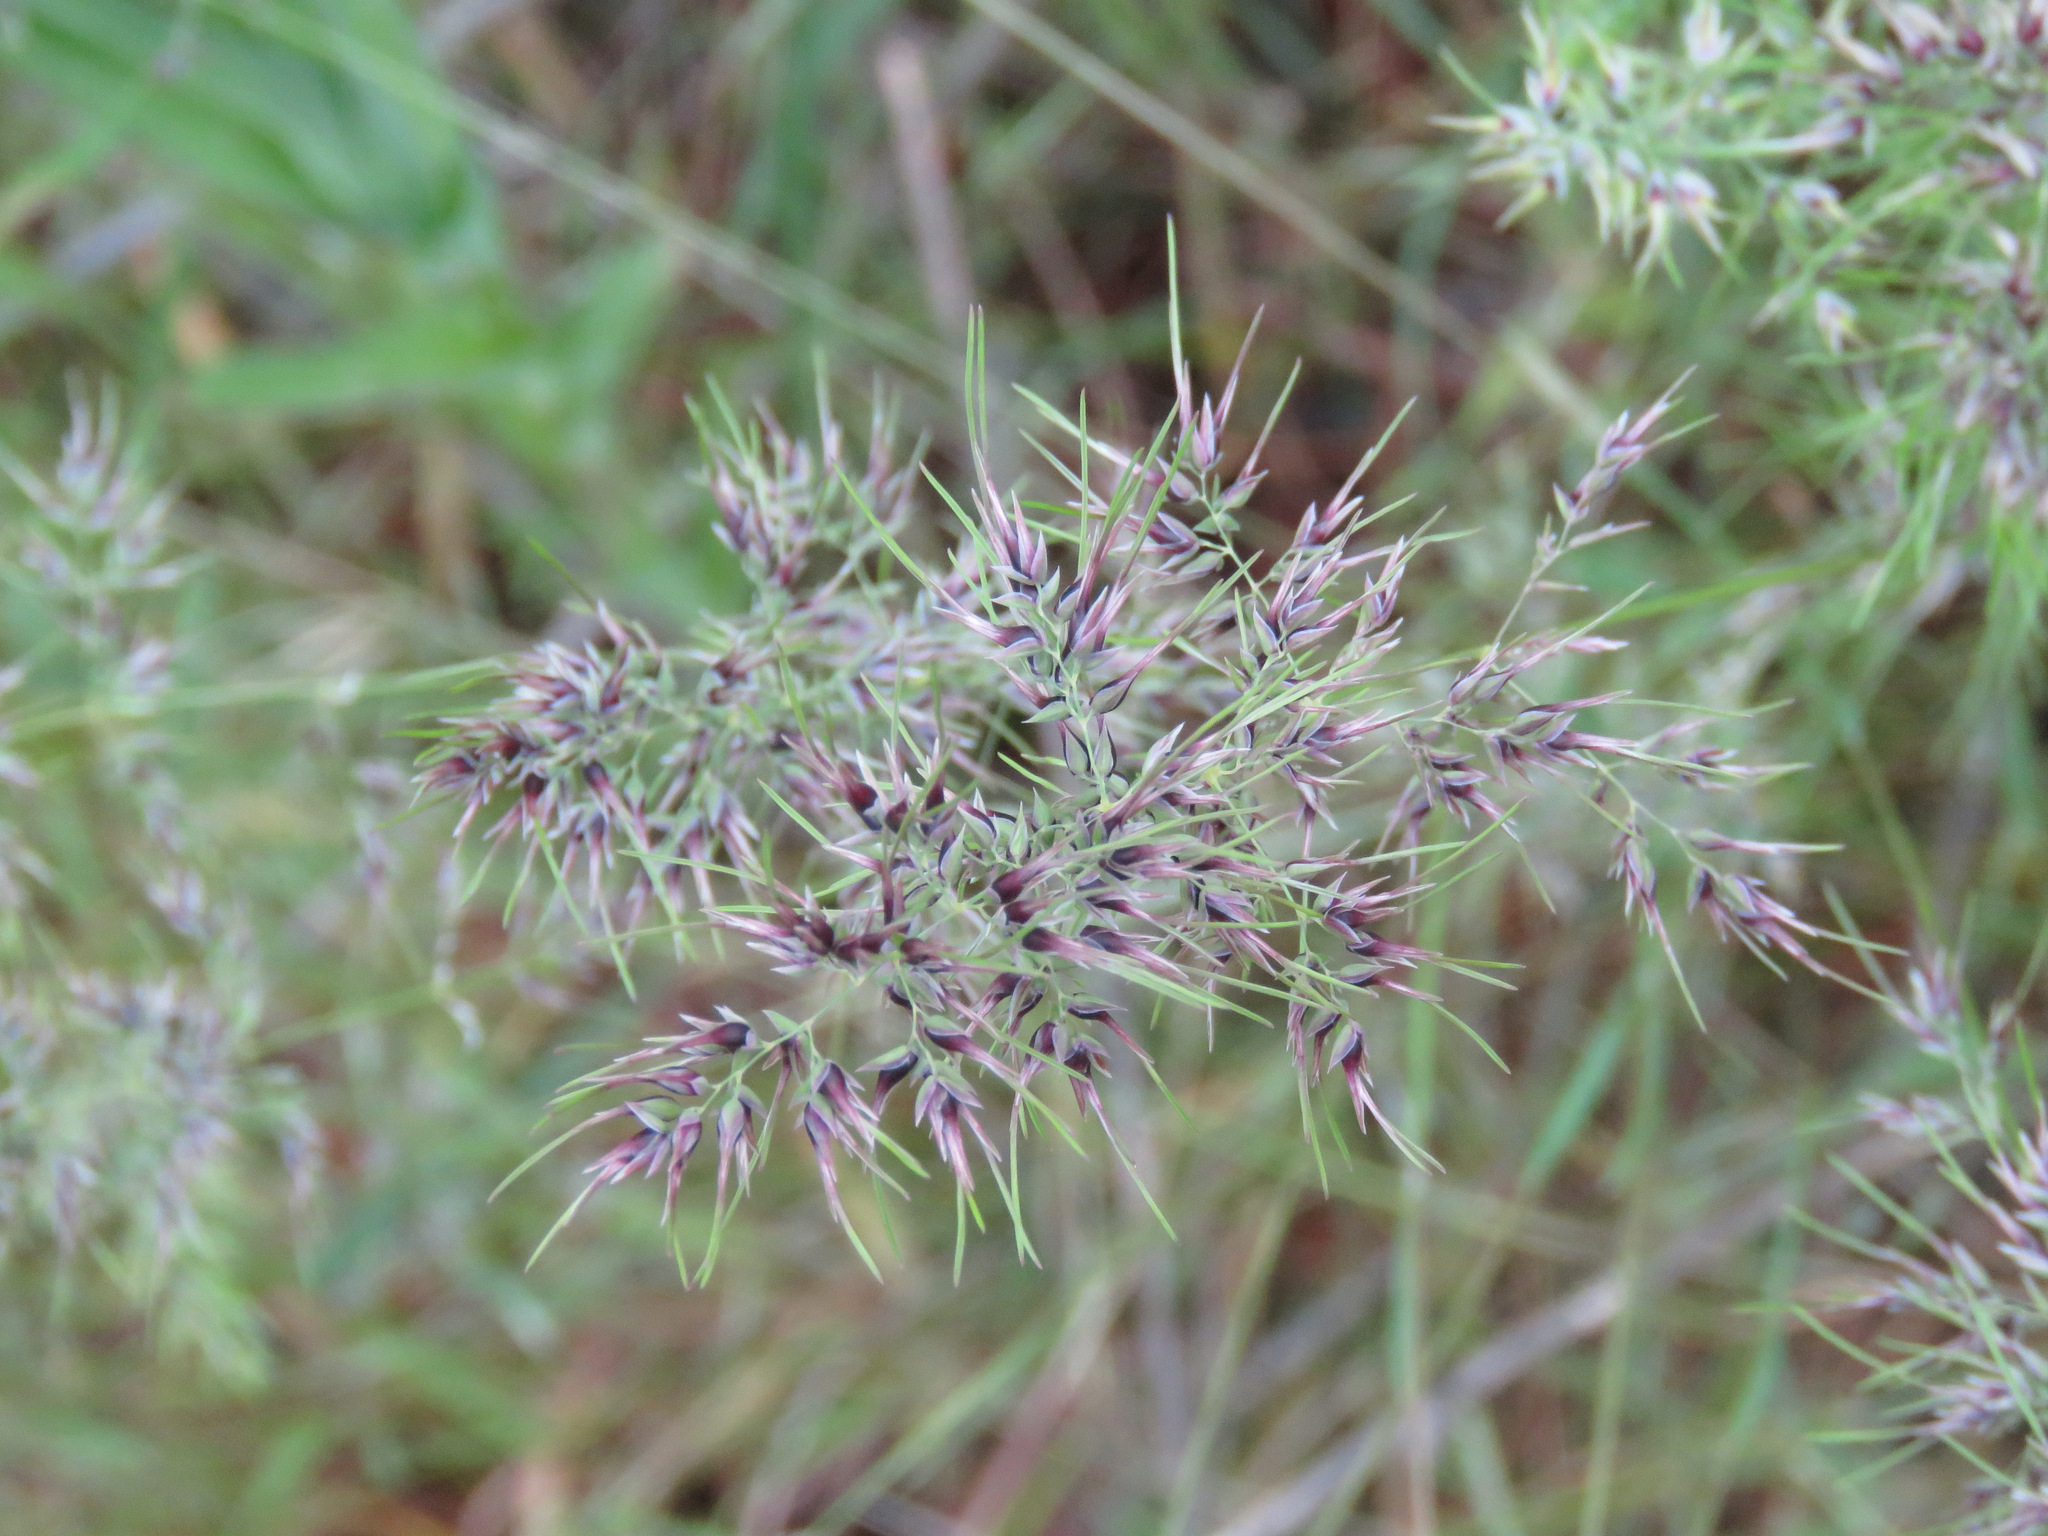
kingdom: Plantae
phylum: Tracheophyta
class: Liliopsida
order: Poales
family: Poaceae
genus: Poa
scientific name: Poa bulbosa
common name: Bulbous bluegrass
